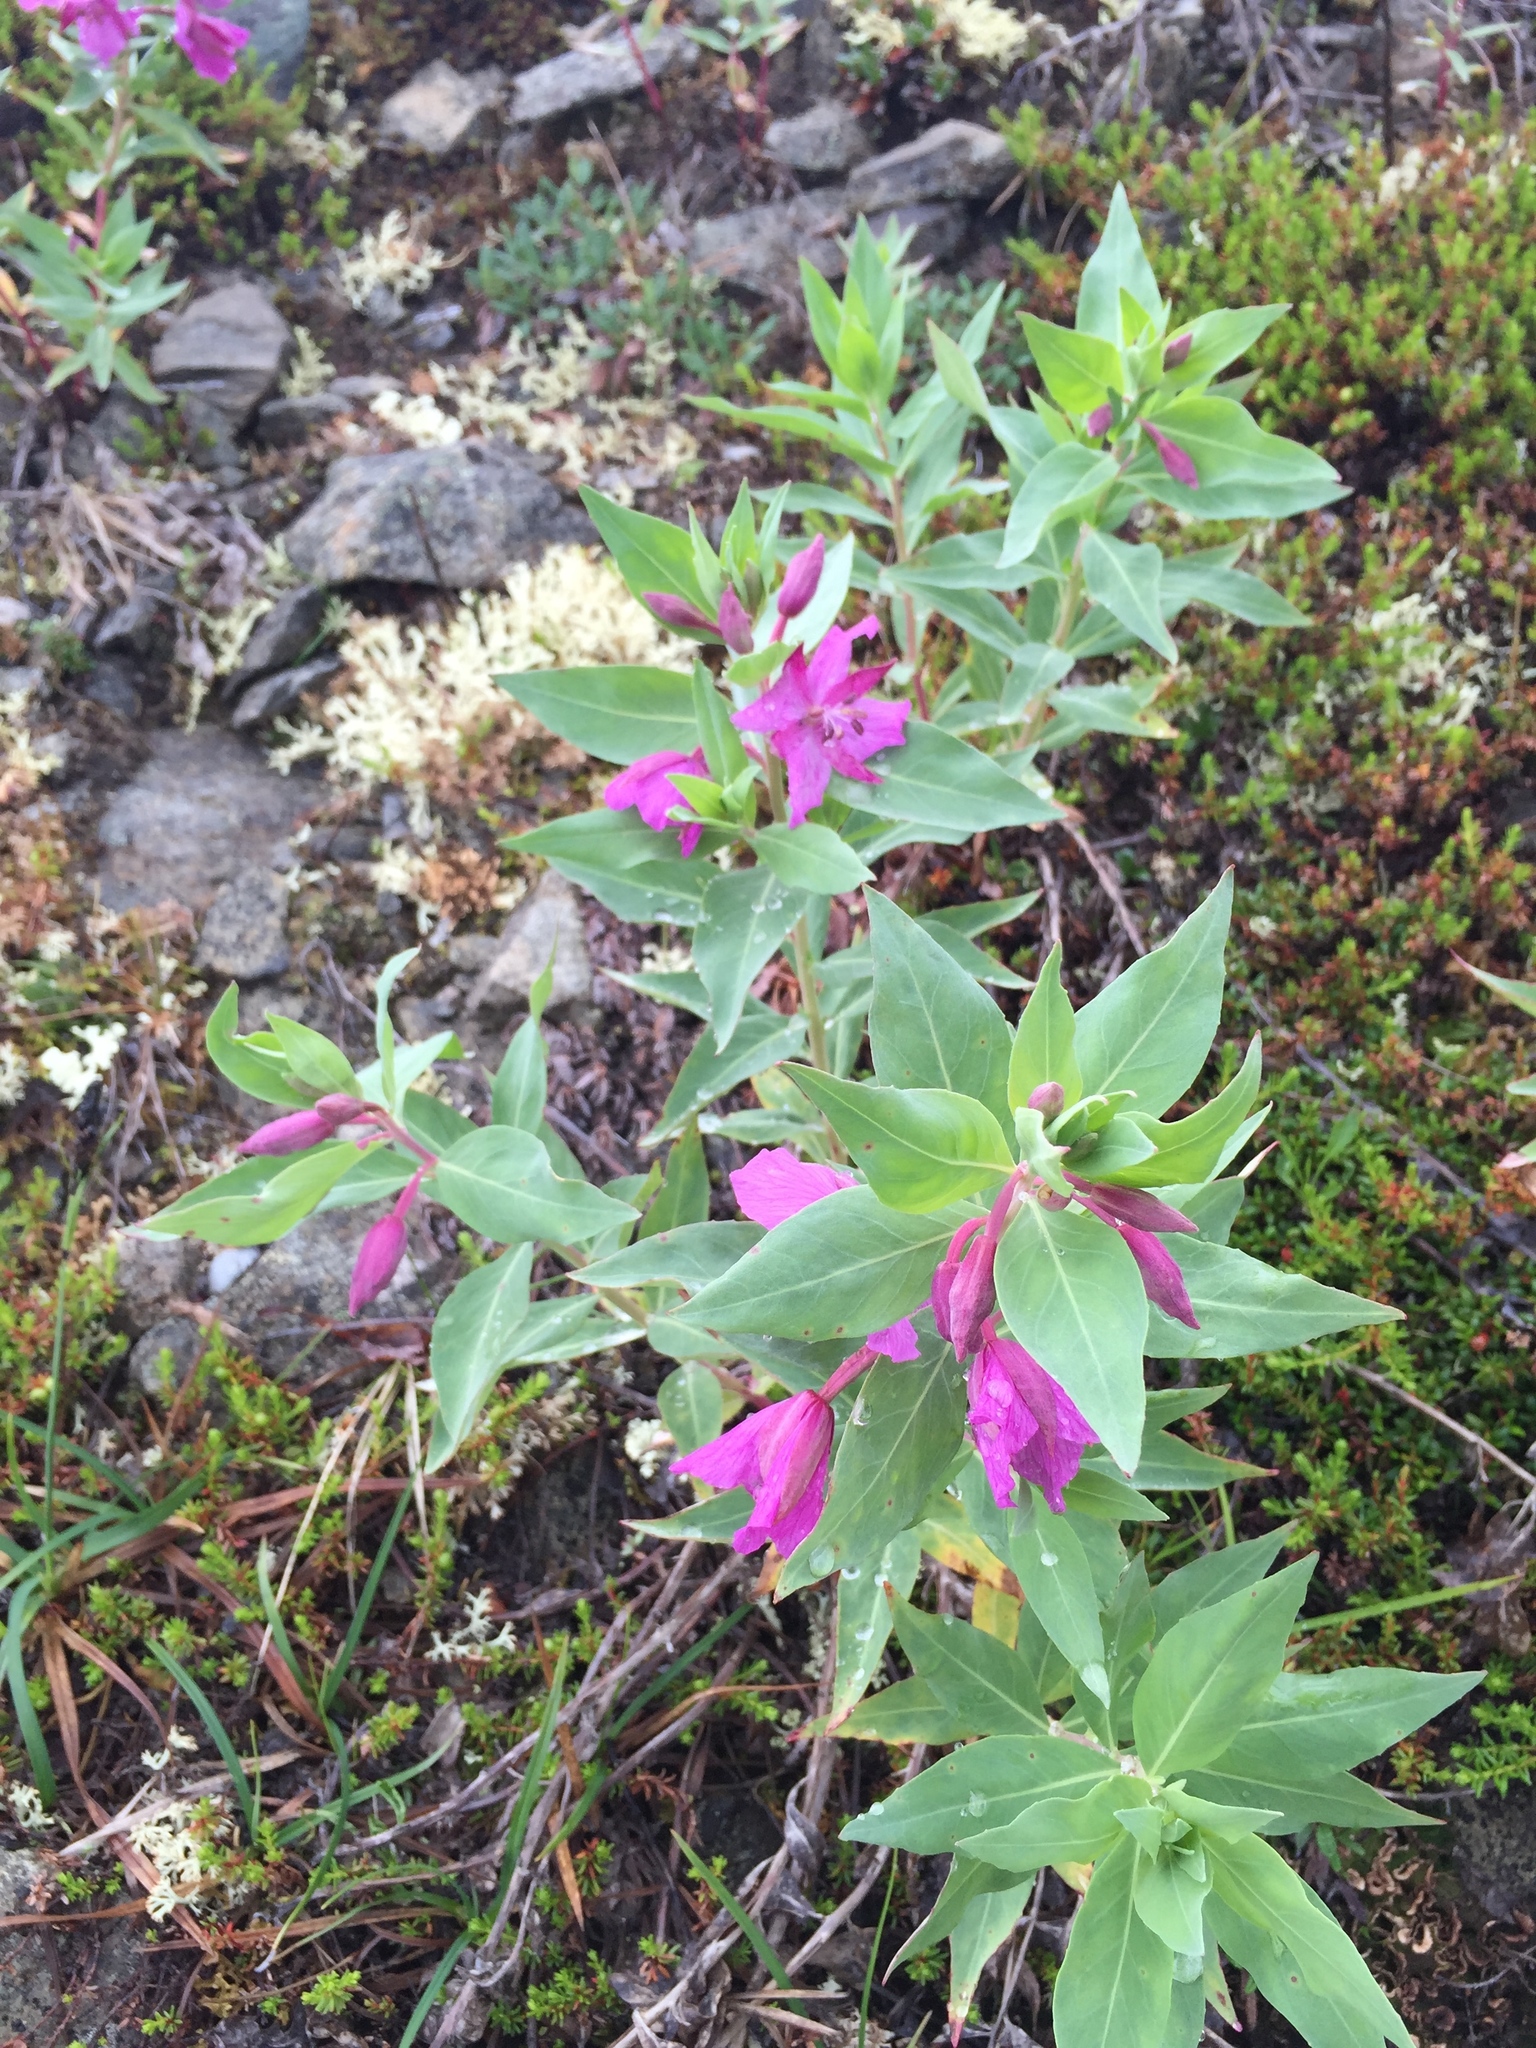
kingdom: Plantae
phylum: Tracheophyta
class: Magnoliopsida
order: Myrtales
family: Onagraceae
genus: Chamaenerion
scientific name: Chamaenerion latifolium
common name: Dwarf fireweed
